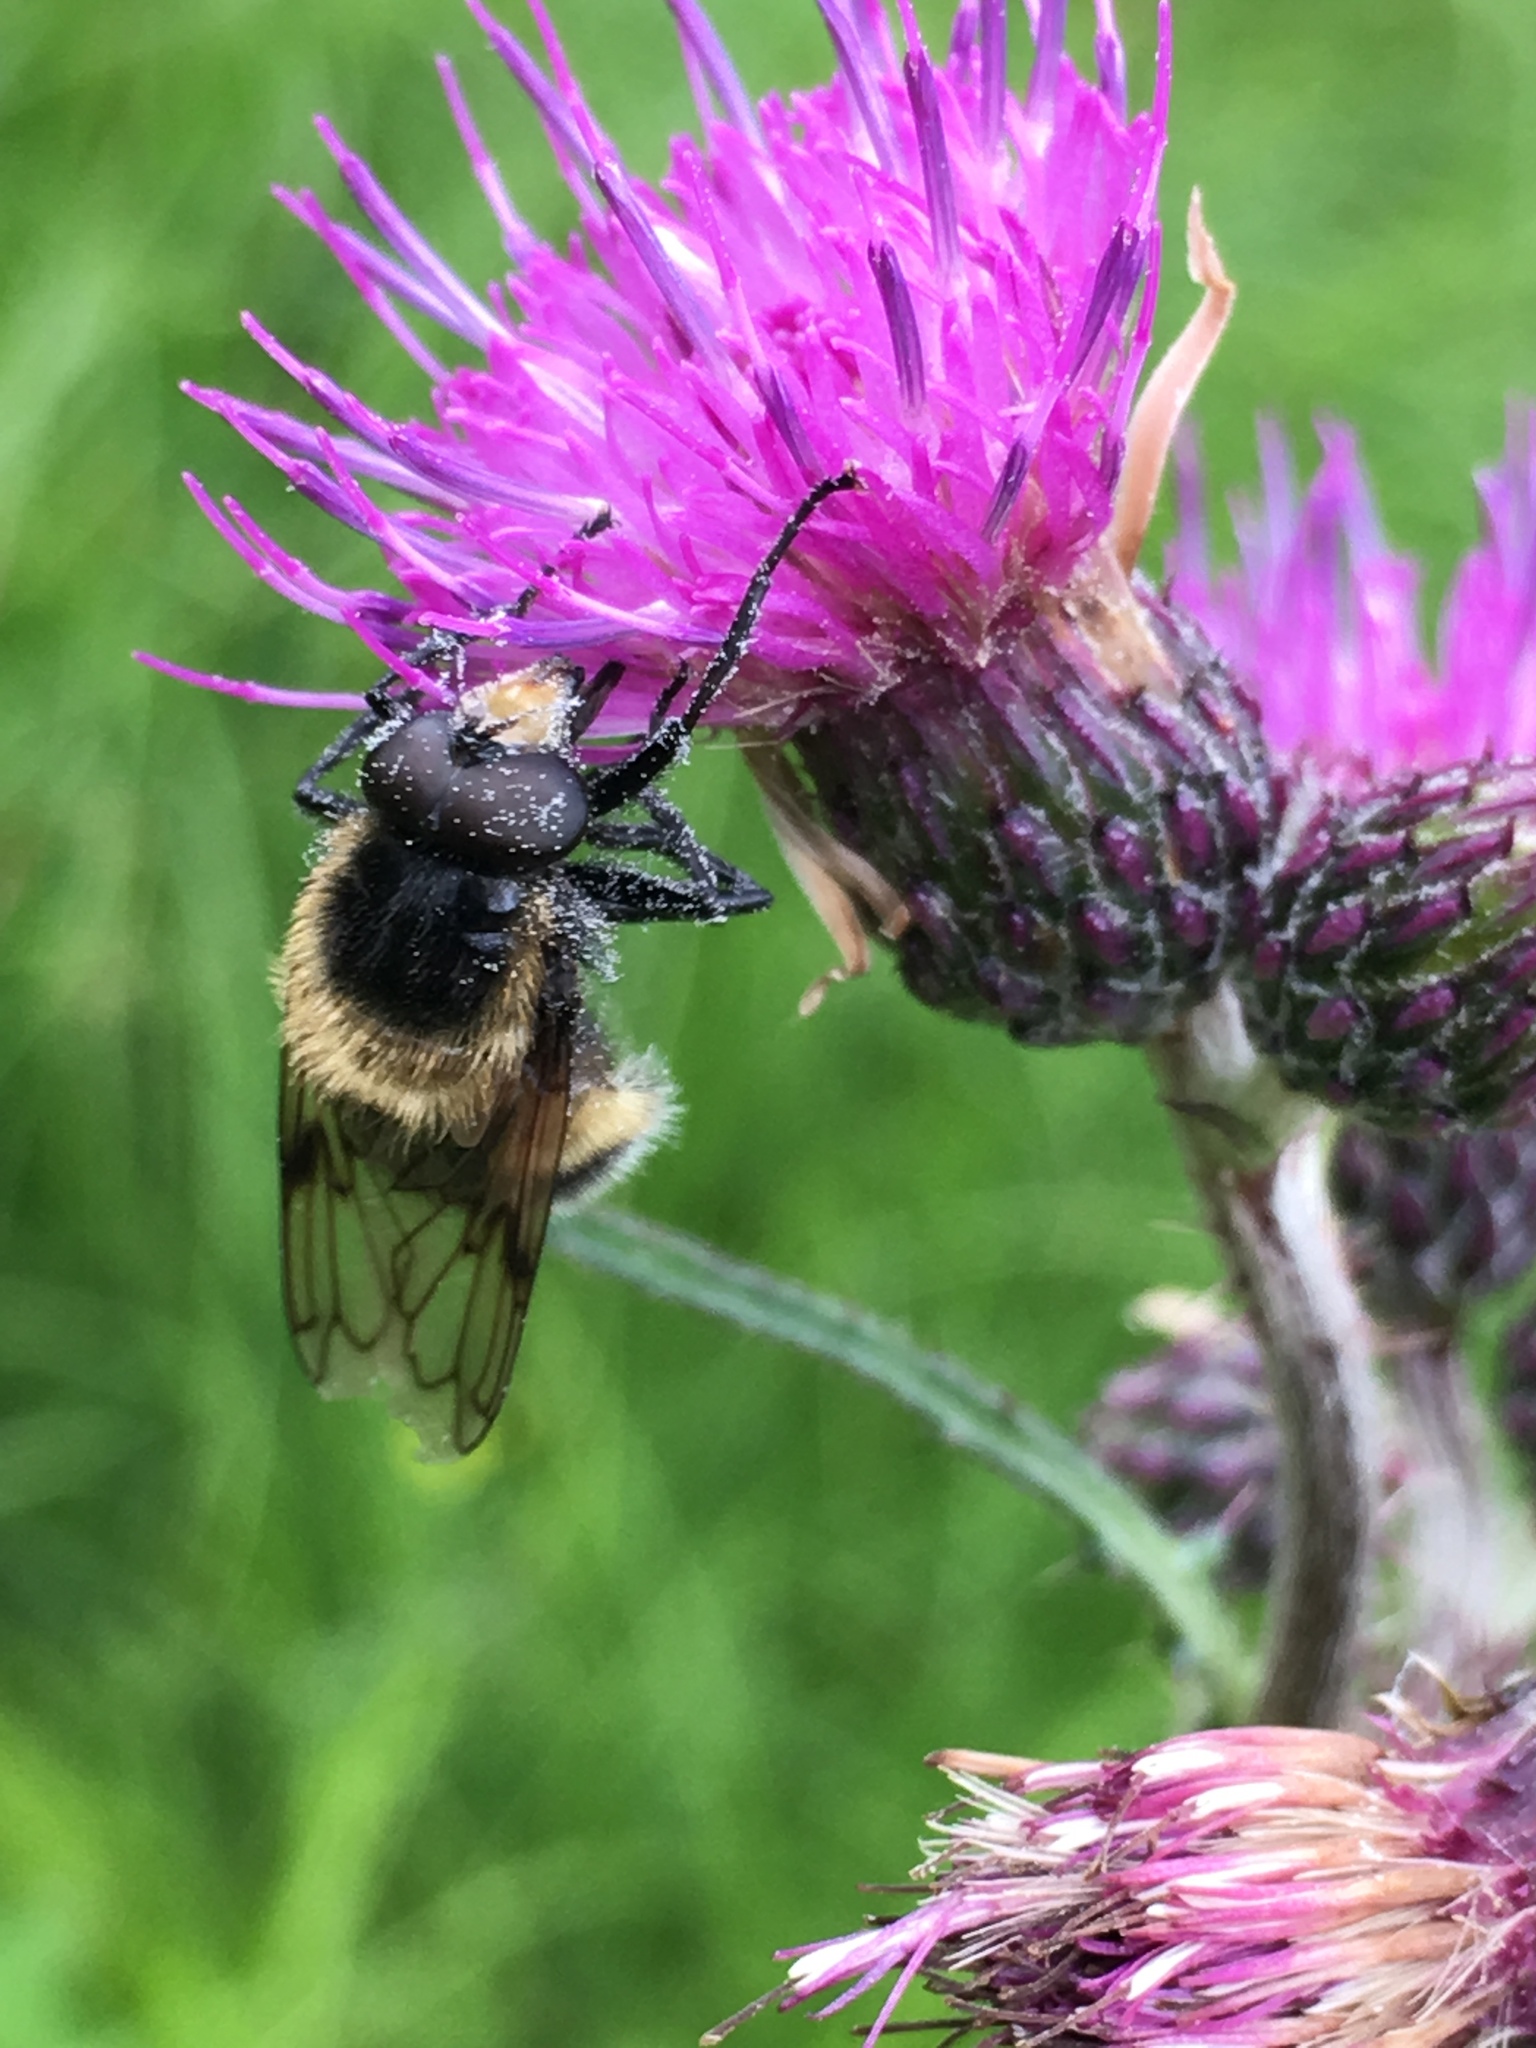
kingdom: Animalia
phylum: Arthropoda
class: Insecta
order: Diptera
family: Syrphidae
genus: Volucella
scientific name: Volucella bombylans
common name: Bumble bee hover fly
